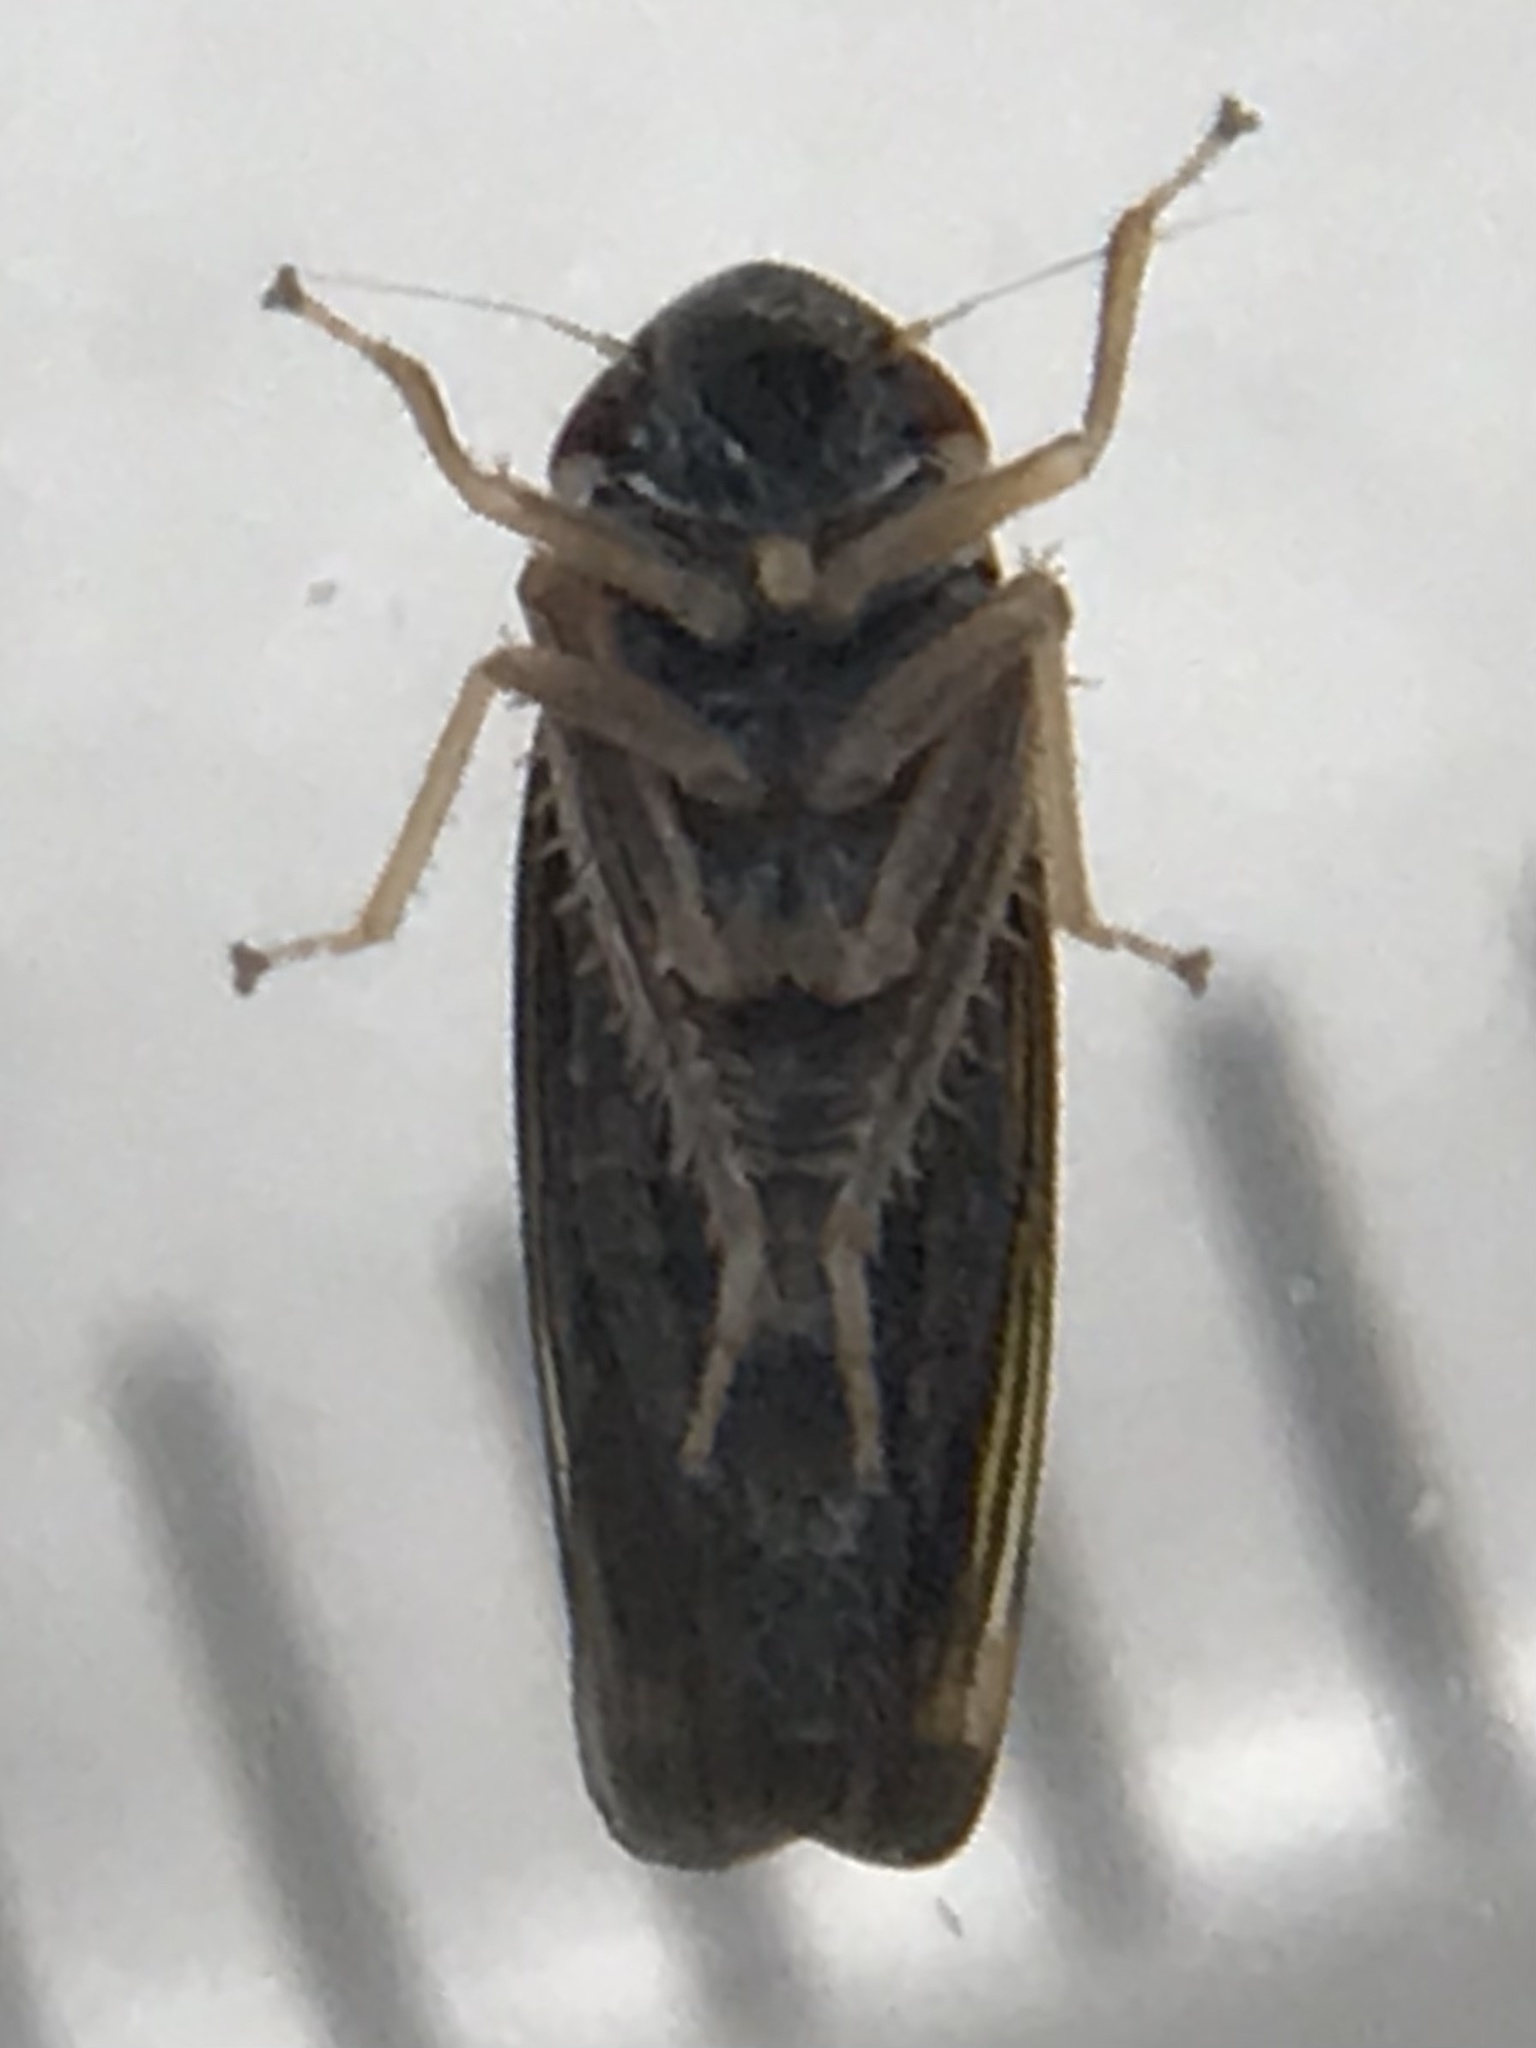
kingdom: Animalia
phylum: Arthropoda
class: Insecta
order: Hemiptera
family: Cicadellidae
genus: Tylozygus
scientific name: Tylozygus bifidus
